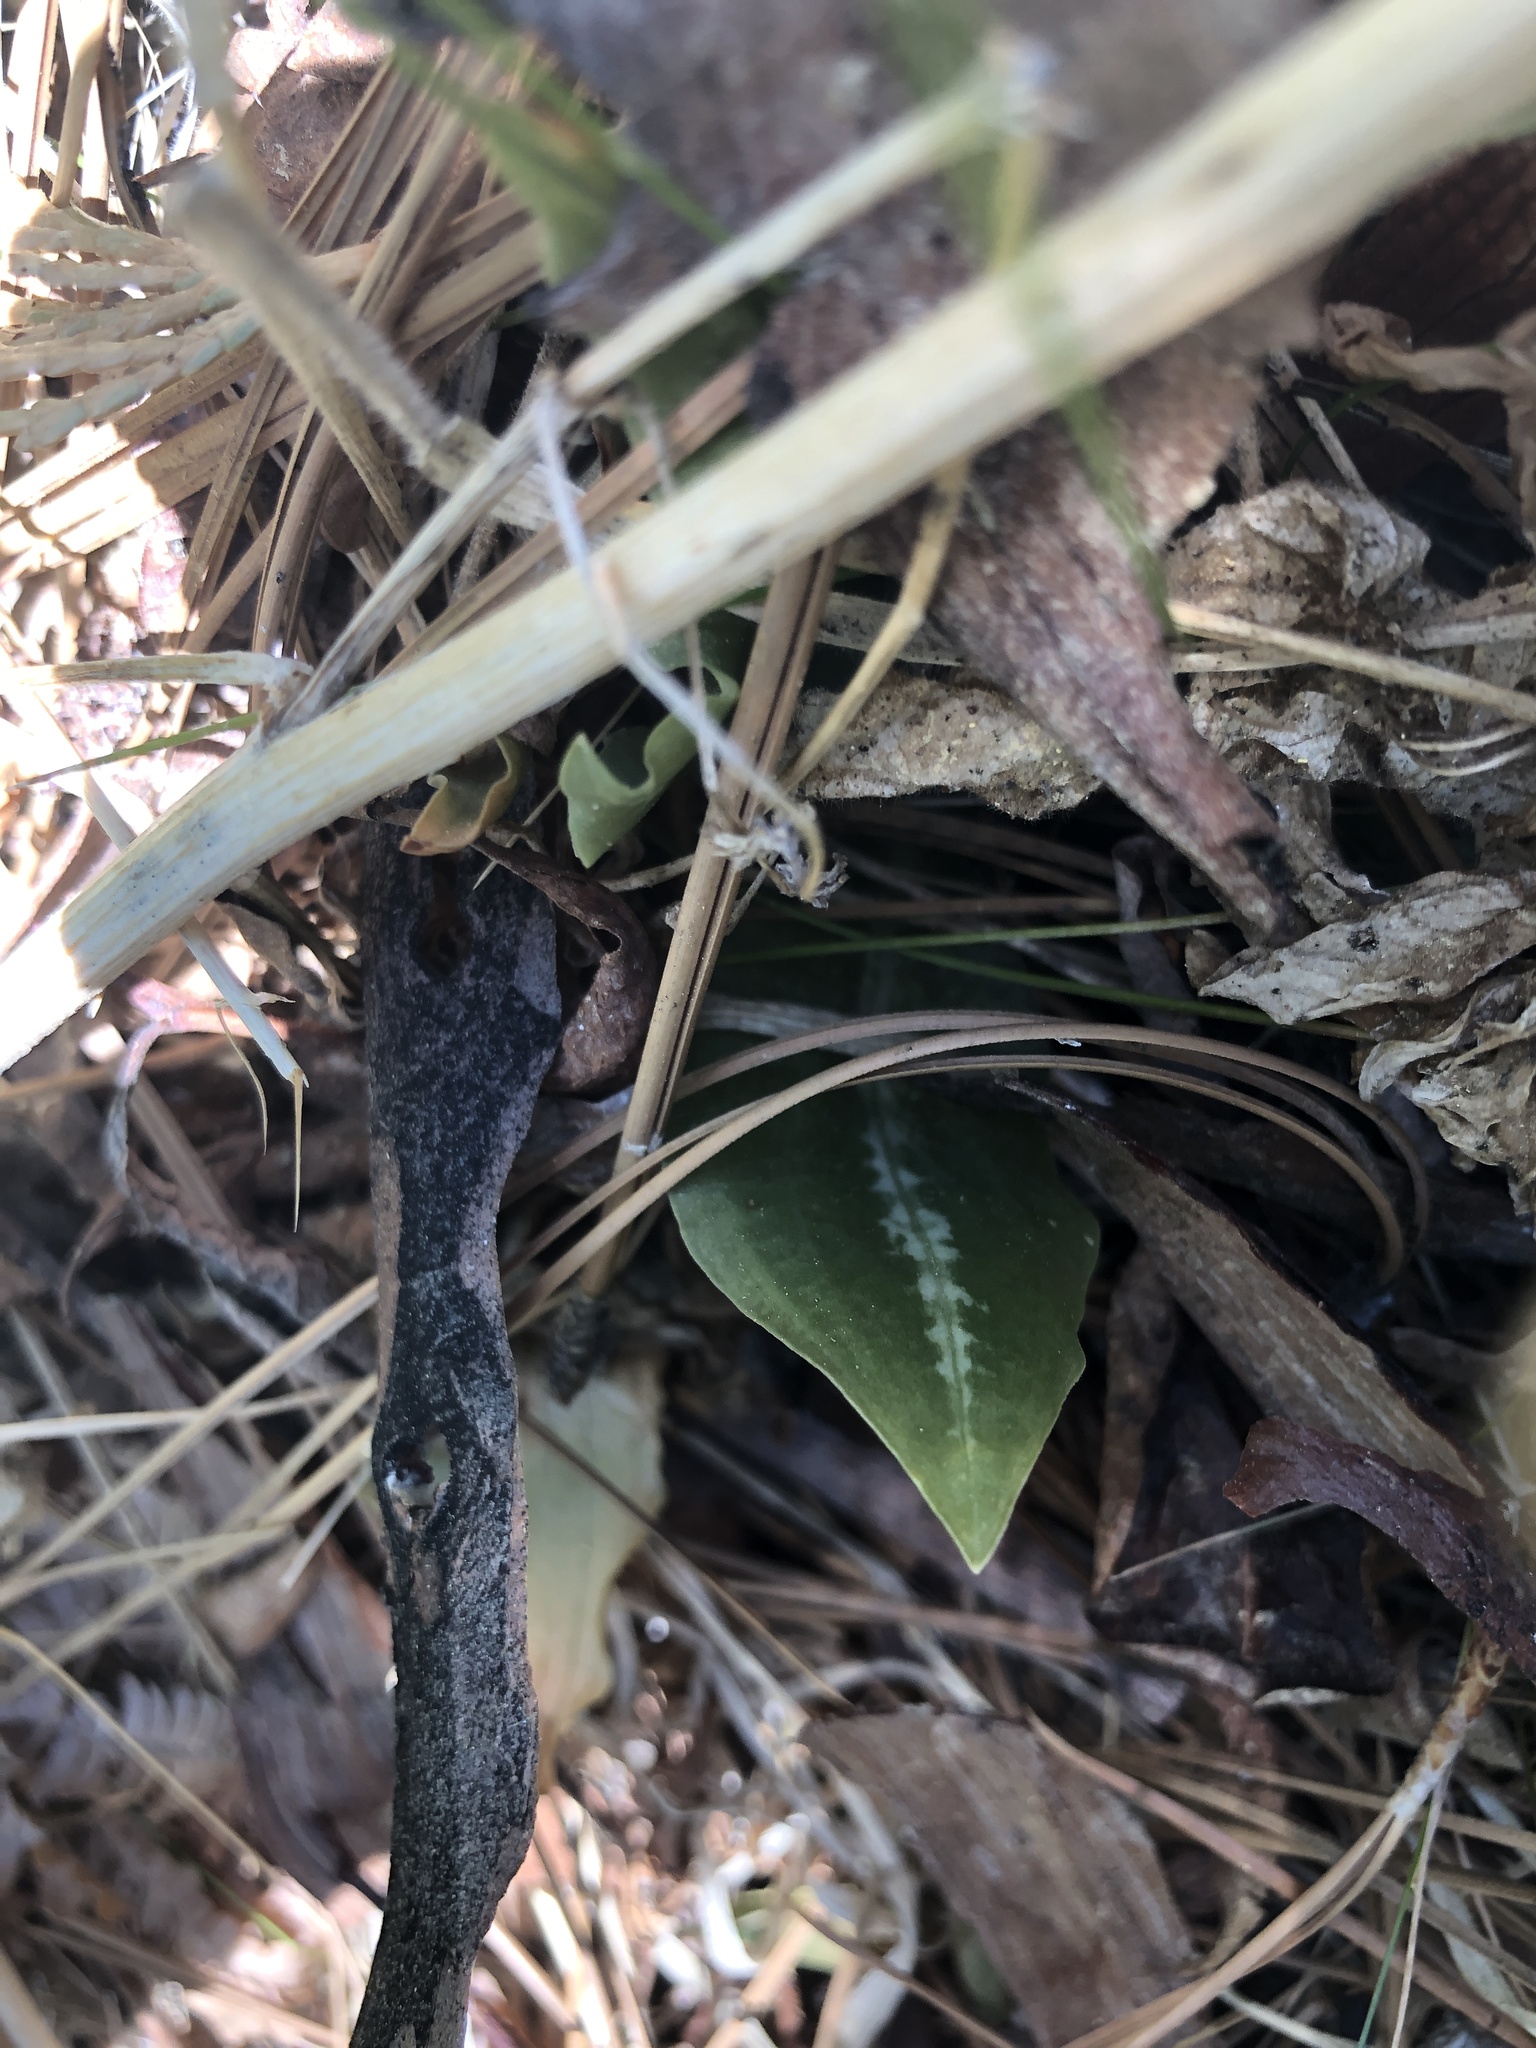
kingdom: Plantae
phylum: Tracheophyta
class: Liliopsida
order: Asparagales
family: Orchidaceae
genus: Goodyera
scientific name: Goodyera oblongifolia
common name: Giant rattlesnake-plantain
